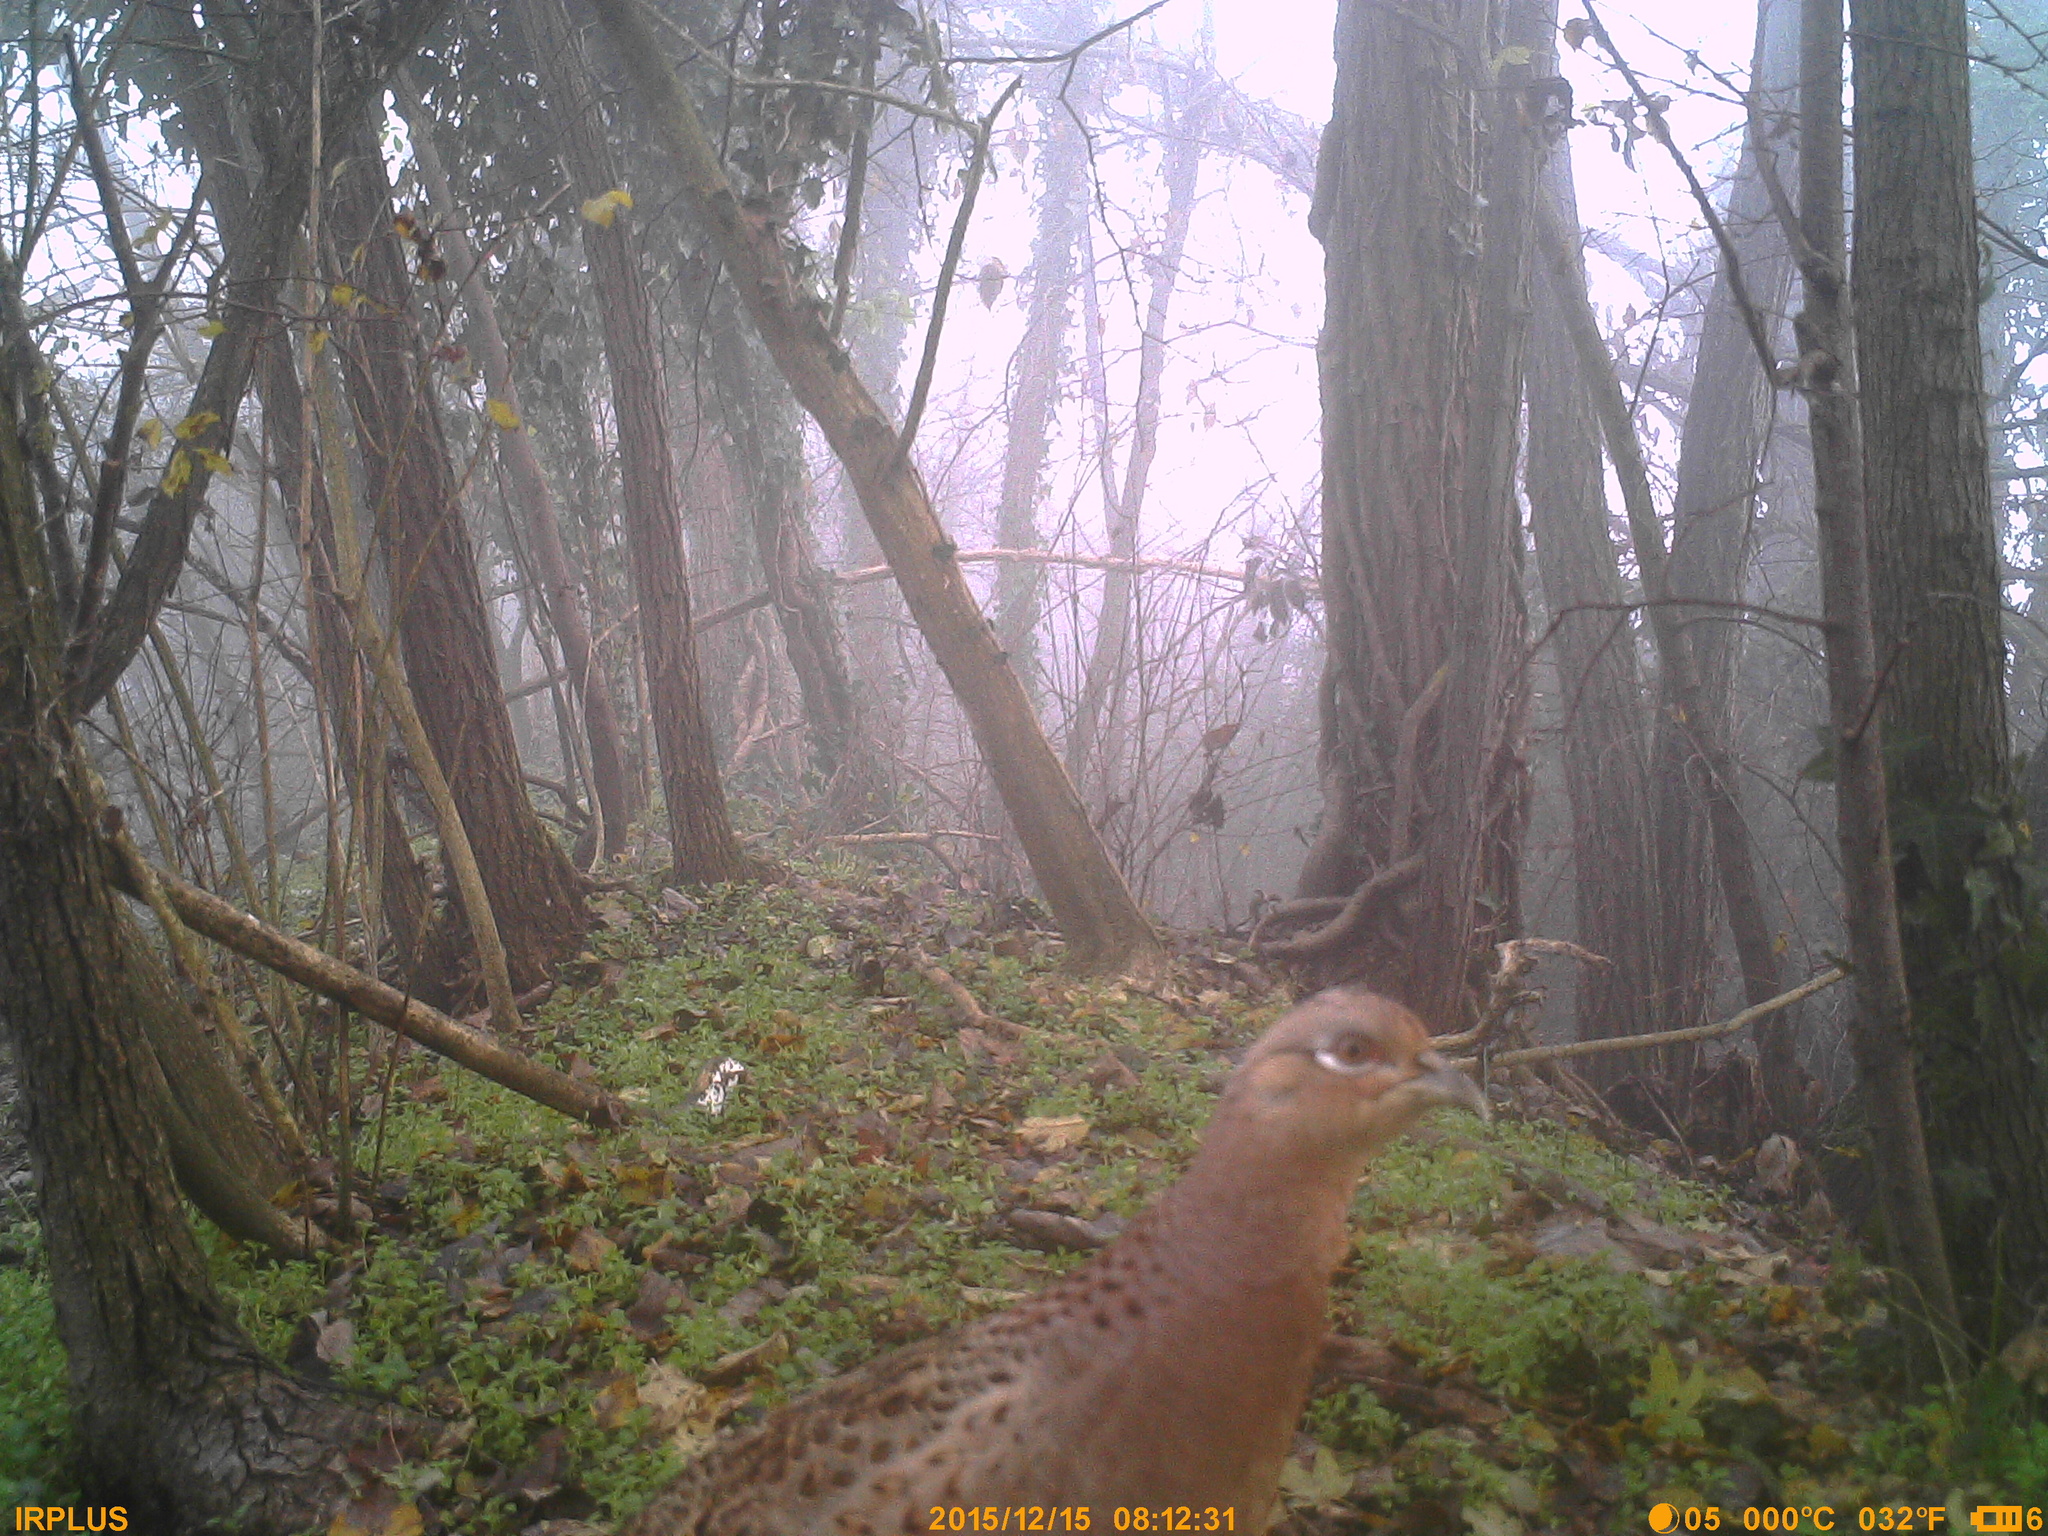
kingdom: Animalia
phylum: Chordata
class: Aves
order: Galliformes
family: Phasianidae
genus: Phasianus
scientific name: Phasianus colchicus
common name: Common pheasant
